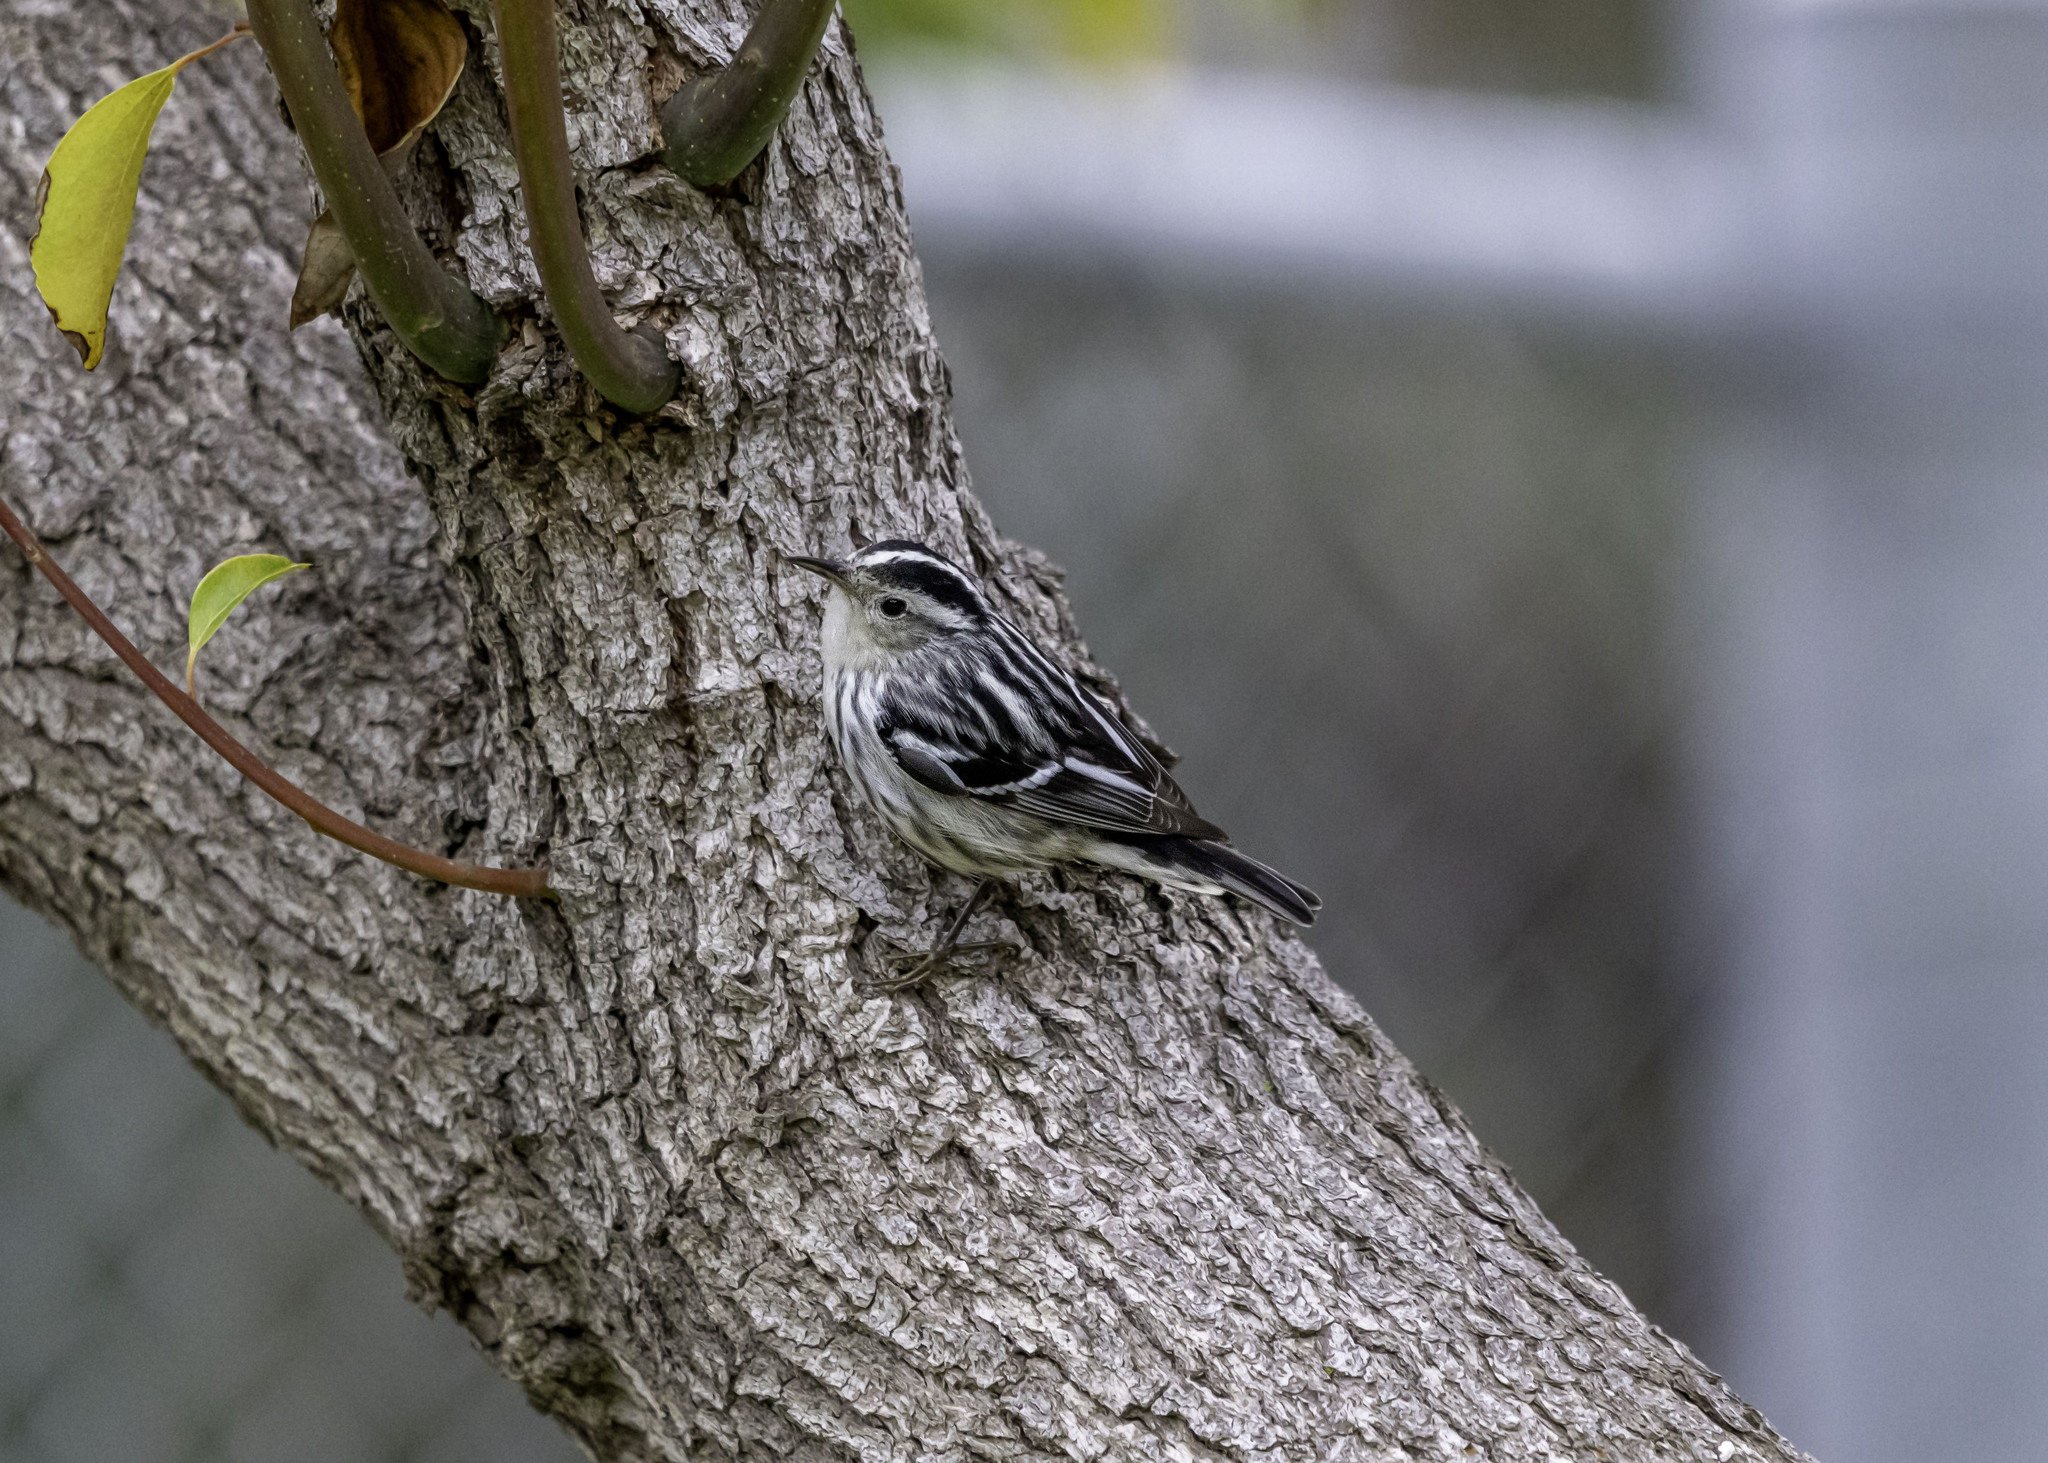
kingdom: Animalia
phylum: Chordata
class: Aves
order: Passeriformes
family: Parulidae
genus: Mniotilta
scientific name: Mniotilta varia
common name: Black-and-white warbler
